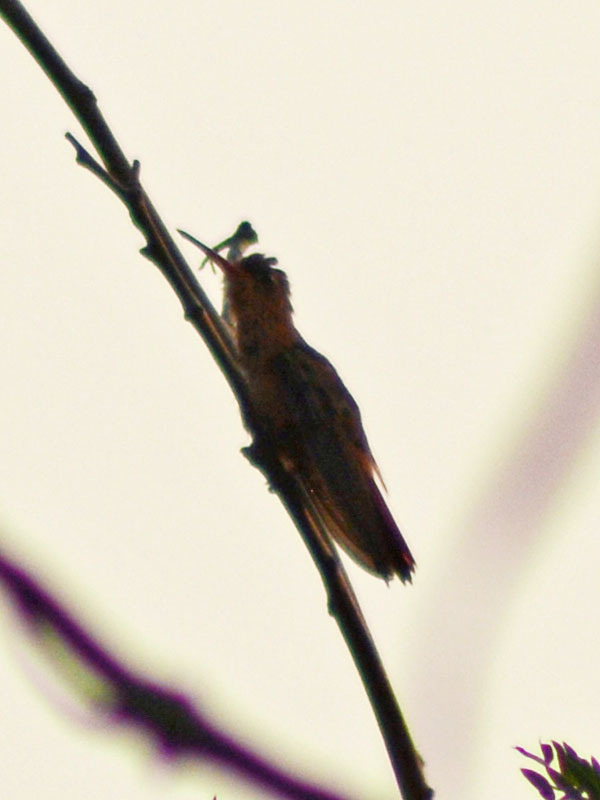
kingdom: Animalia
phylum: Chordata
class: Aves
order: Apodiformes
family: Trochilidae
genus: Amazilia
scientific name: Amazilia rutila
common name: Cinnamon hummingbird
